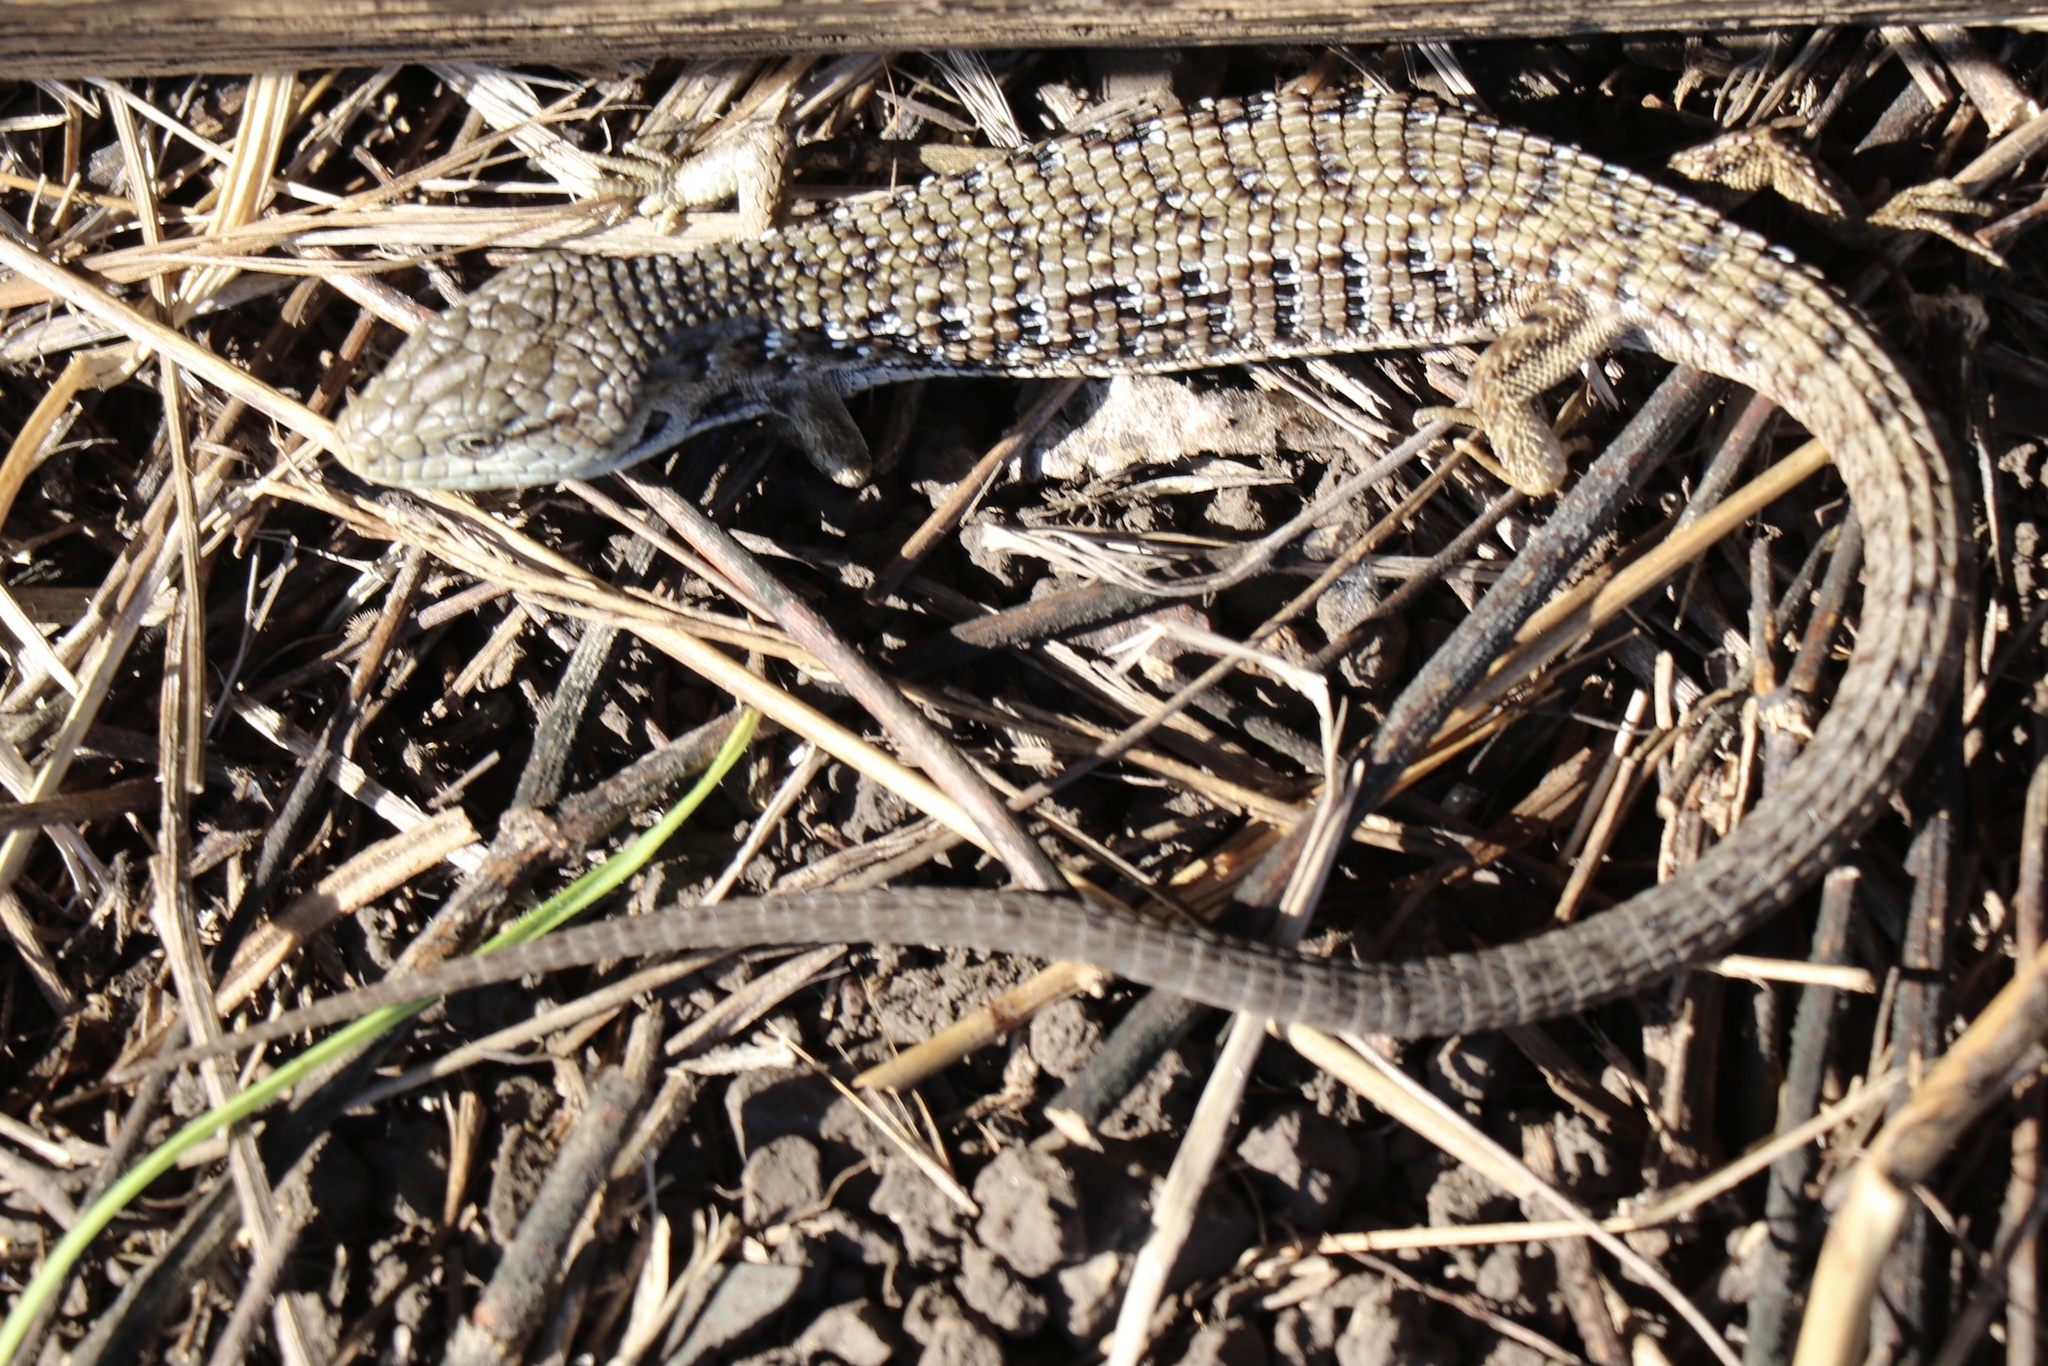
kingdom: Animalia
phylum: Chordata
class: Squamata
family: Anguidae
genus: Elgaria
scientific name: Elgaria multicarinata
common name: Southern alligator lizard
